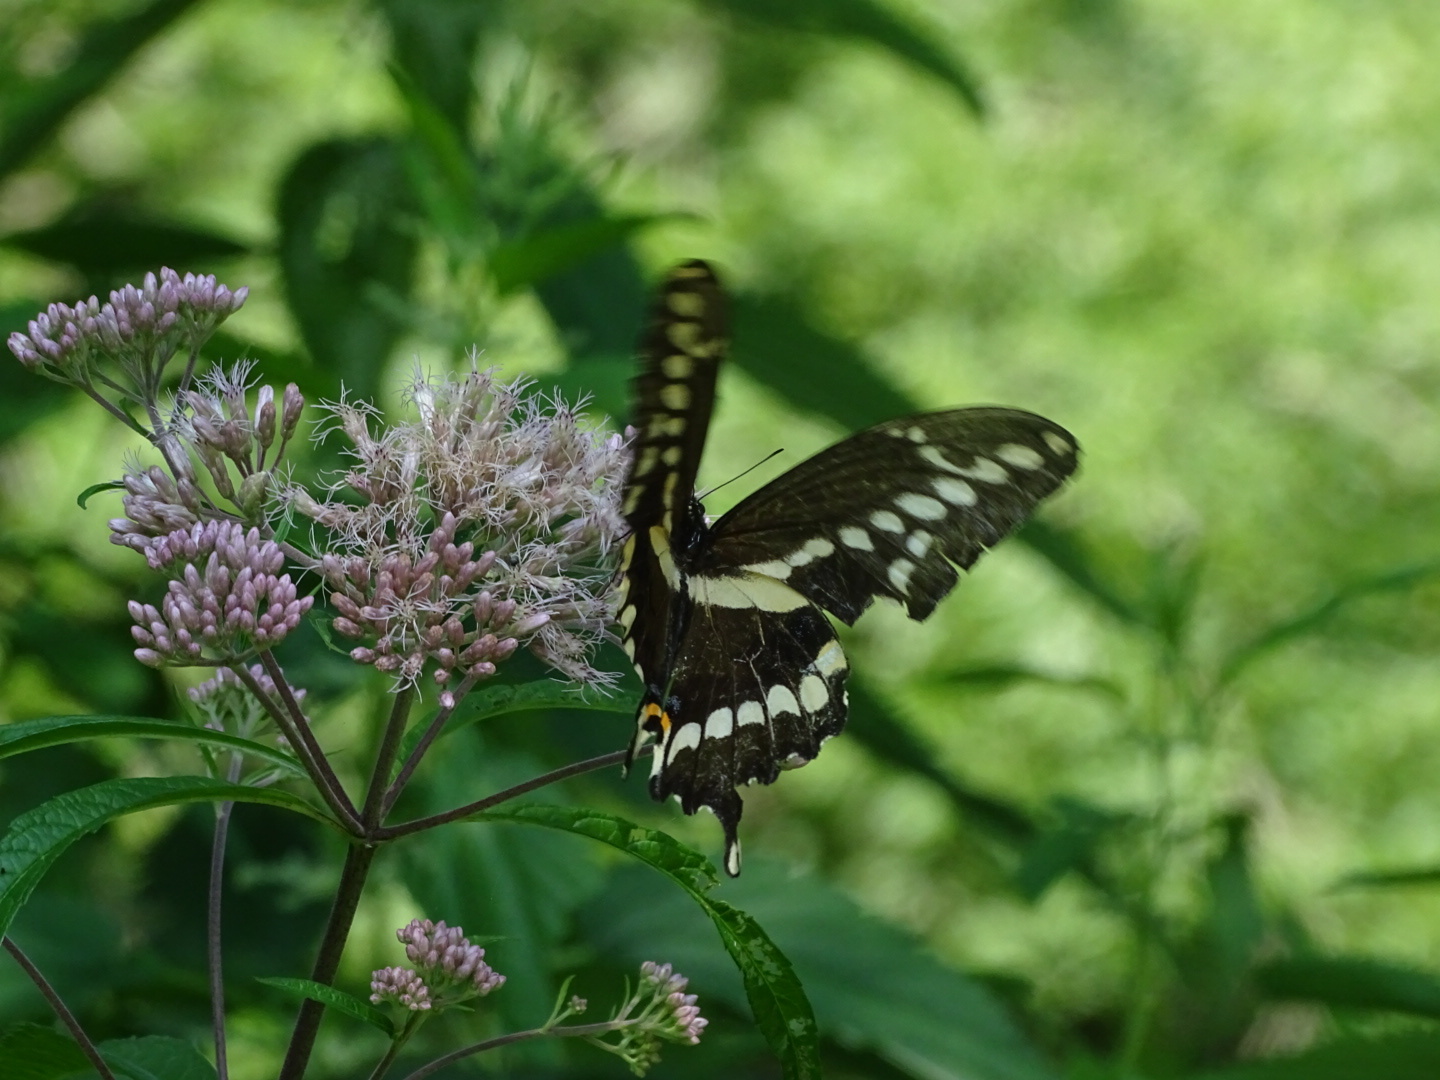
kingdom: Animalia
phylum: Arthropoda
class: Insecta
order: Lepidoptera
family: Papilionidae
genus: Papilio
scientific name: Papilio cresphontes
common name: Giant swallowtail
